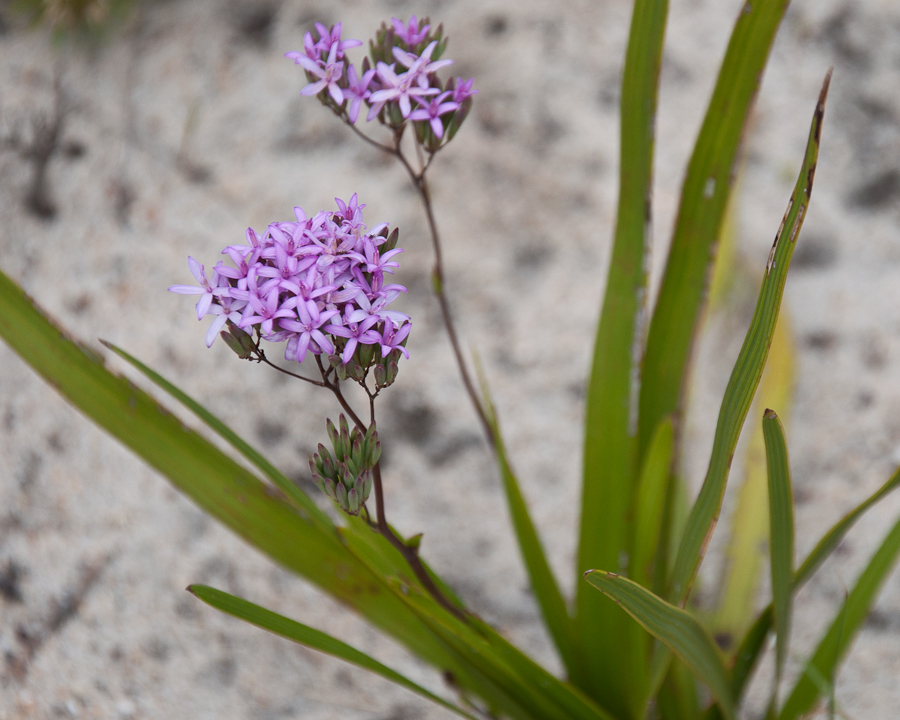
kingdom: Plantae
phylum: Tracheophyta
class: Magnoliopsida
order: Asterales
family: Asteraceae
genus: Corymbium
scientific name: Corymbium glabrum
